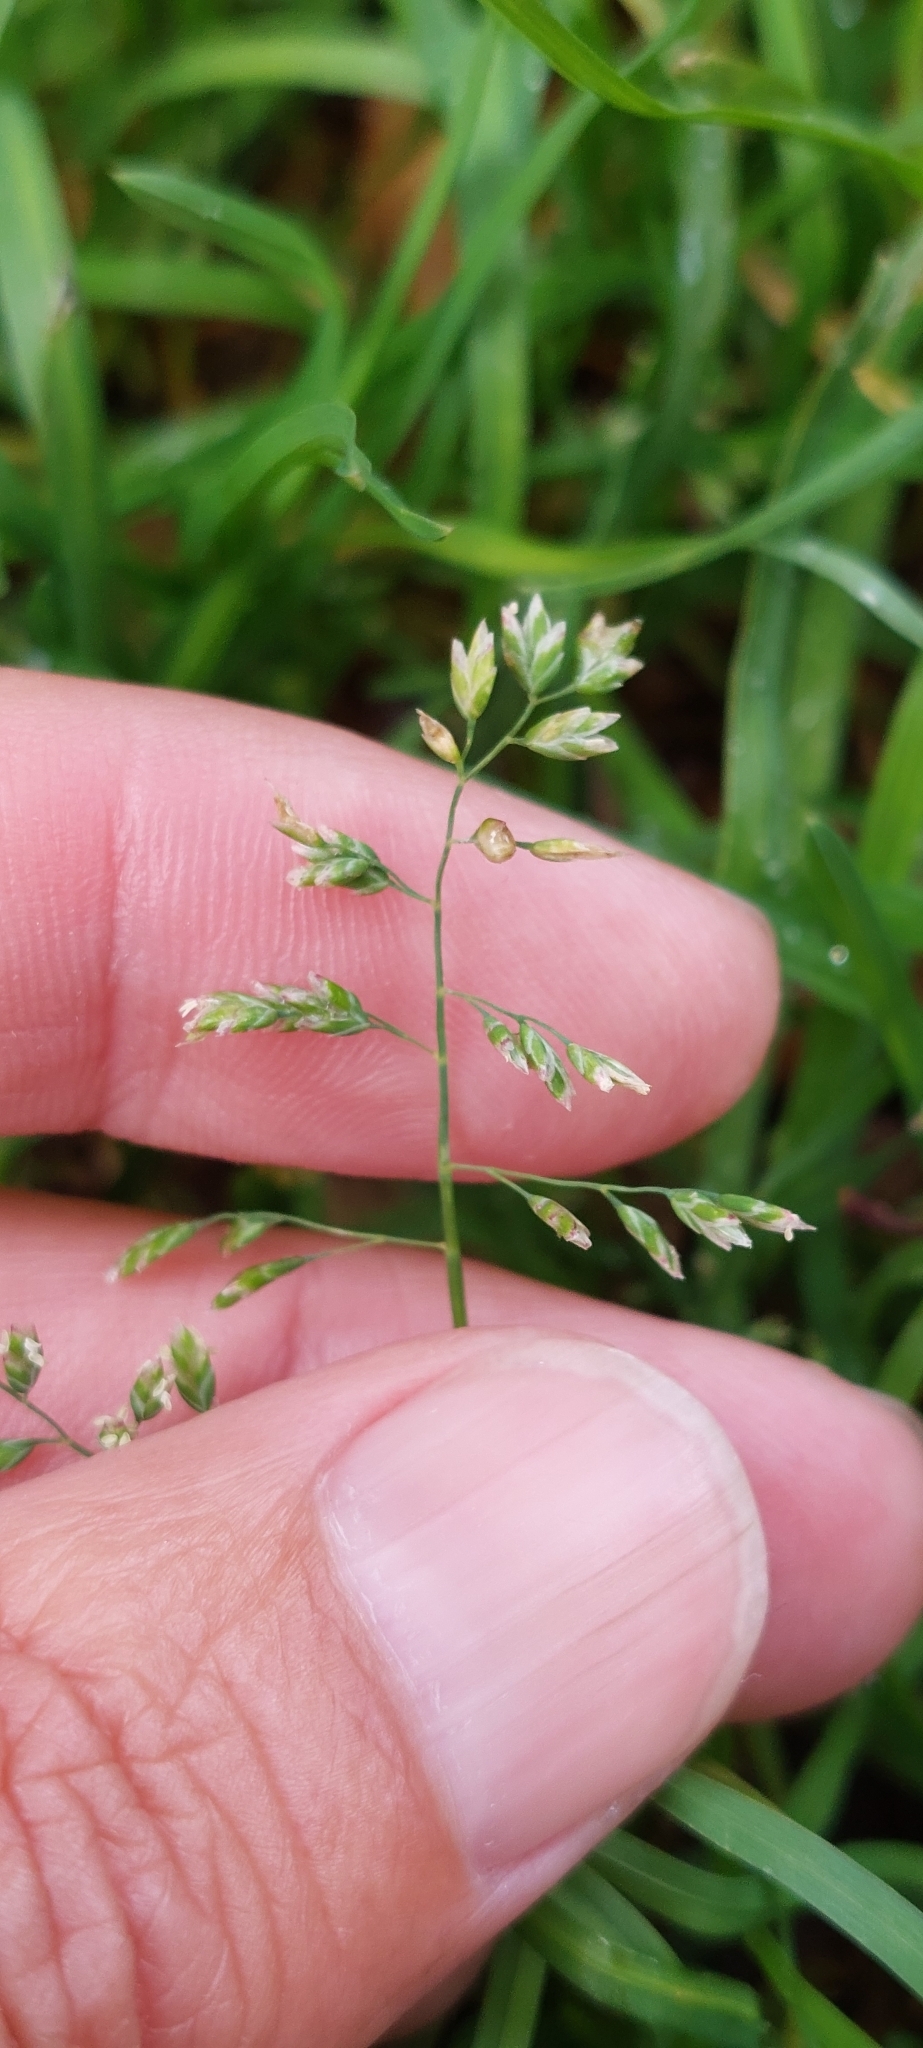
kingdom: Plantae
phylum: Tracheophyta
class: Liliopsida
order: Poales
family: Poaceae
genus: Poa
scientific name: Poa annua
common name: Annual bluegrass
